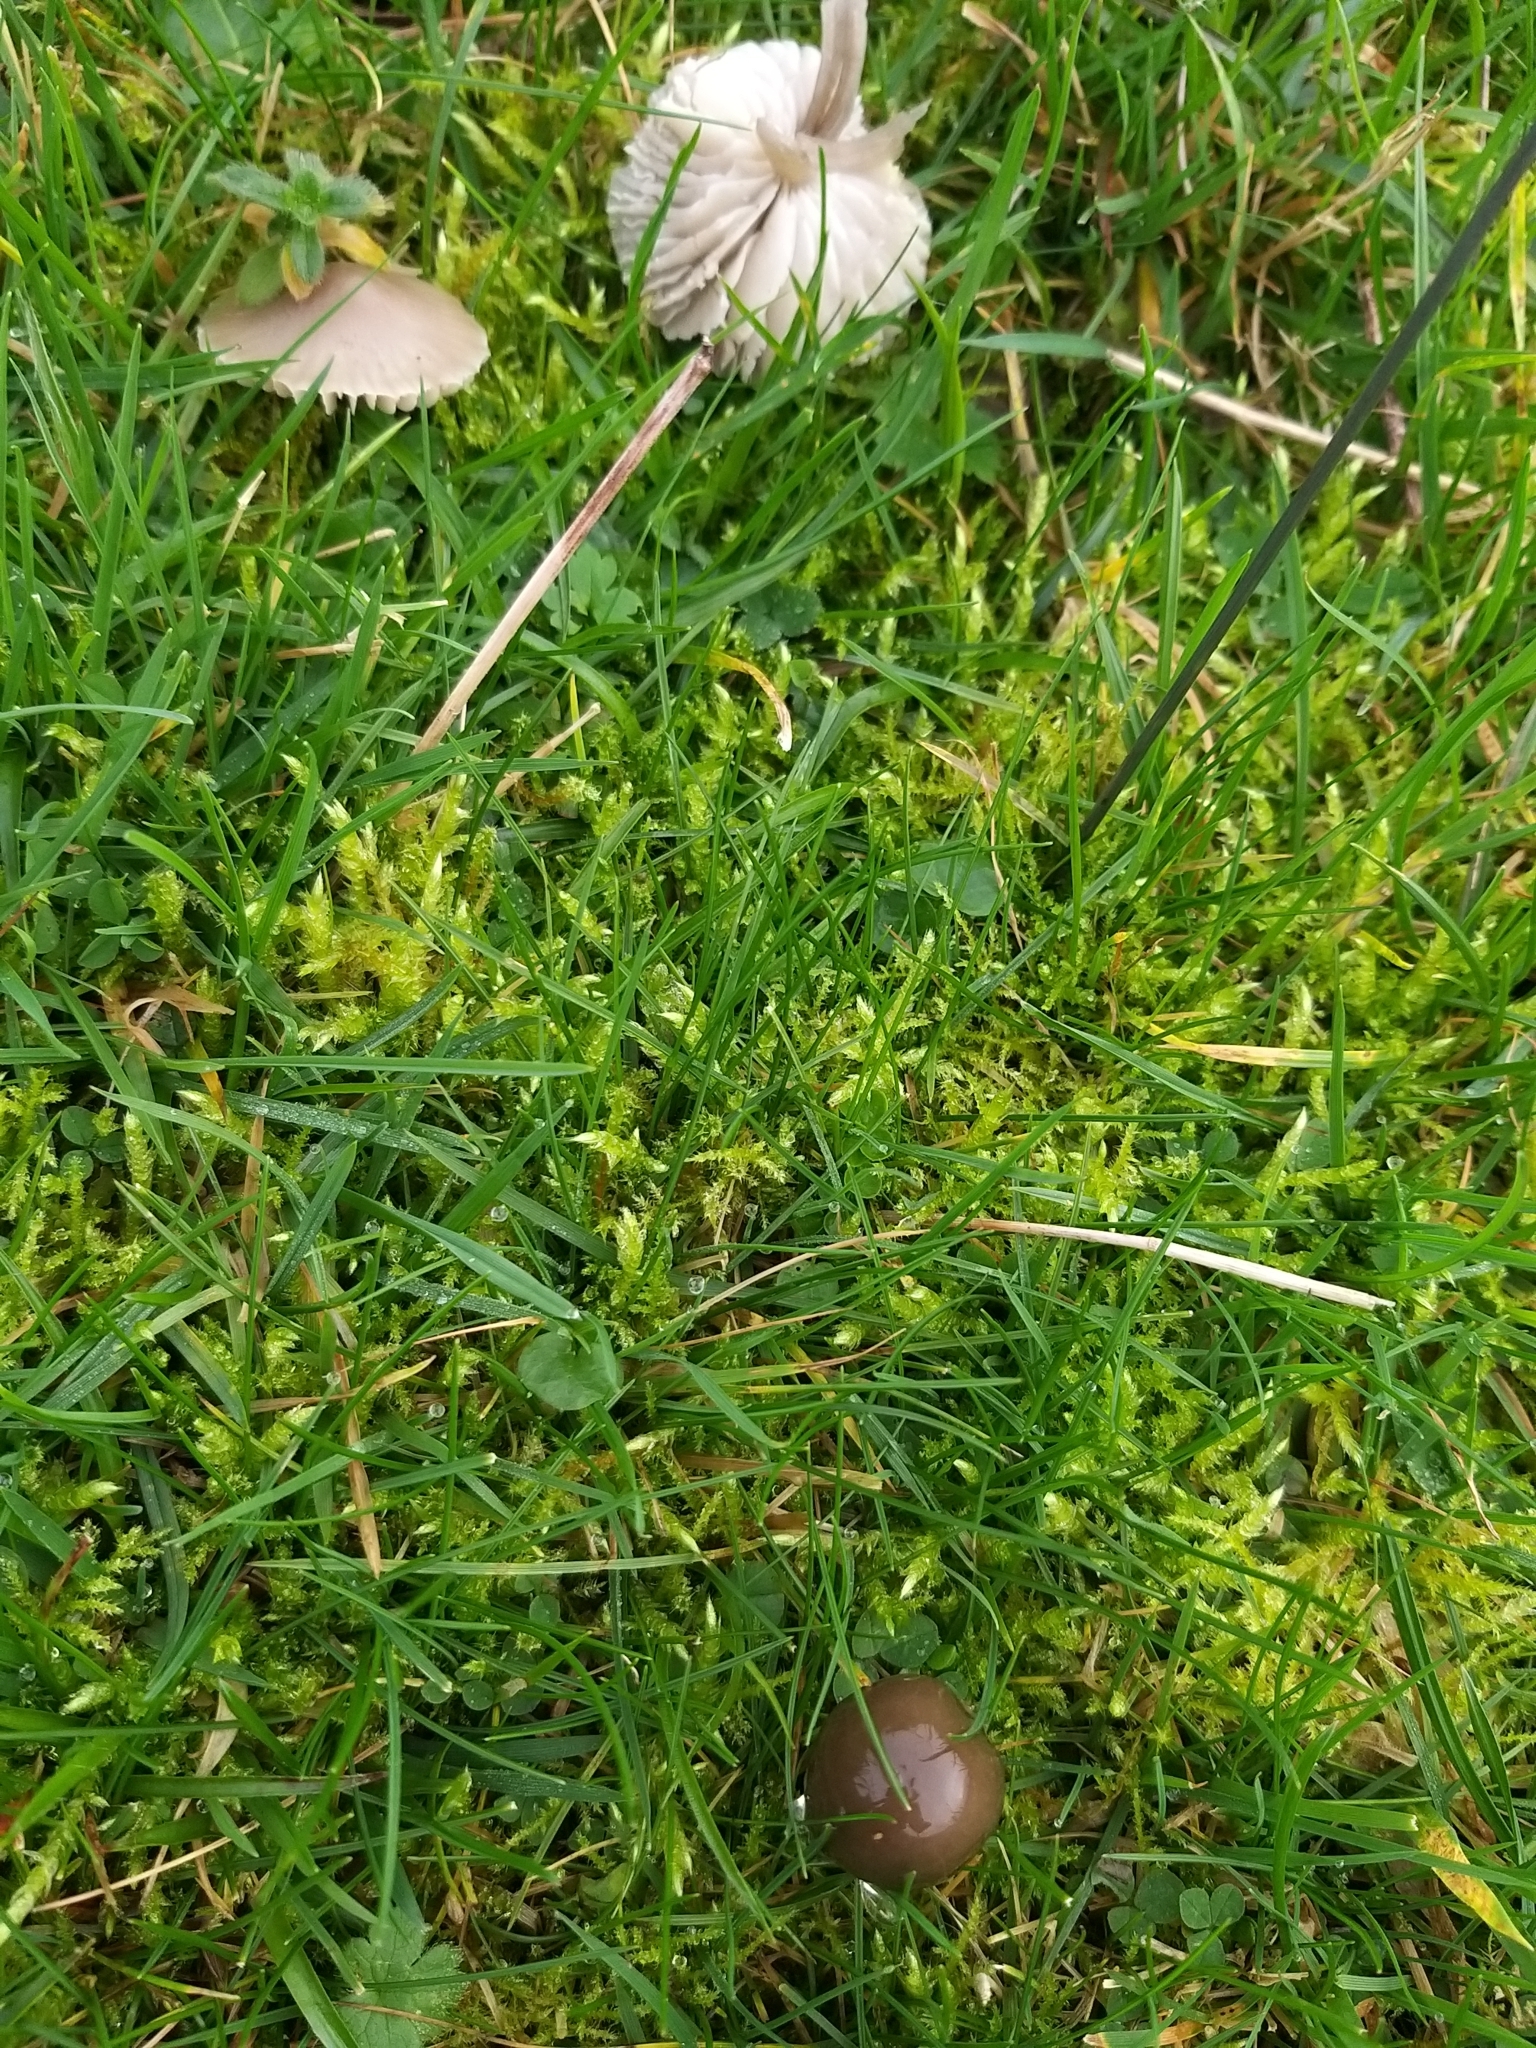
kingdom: Fungi
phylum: Basidiomycota
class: Agaricomycetes
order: Agaricales
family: Hygrophoraceae
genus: Gliophorus
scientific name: Gliophorus irrigatus
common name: Slimy waxcap
